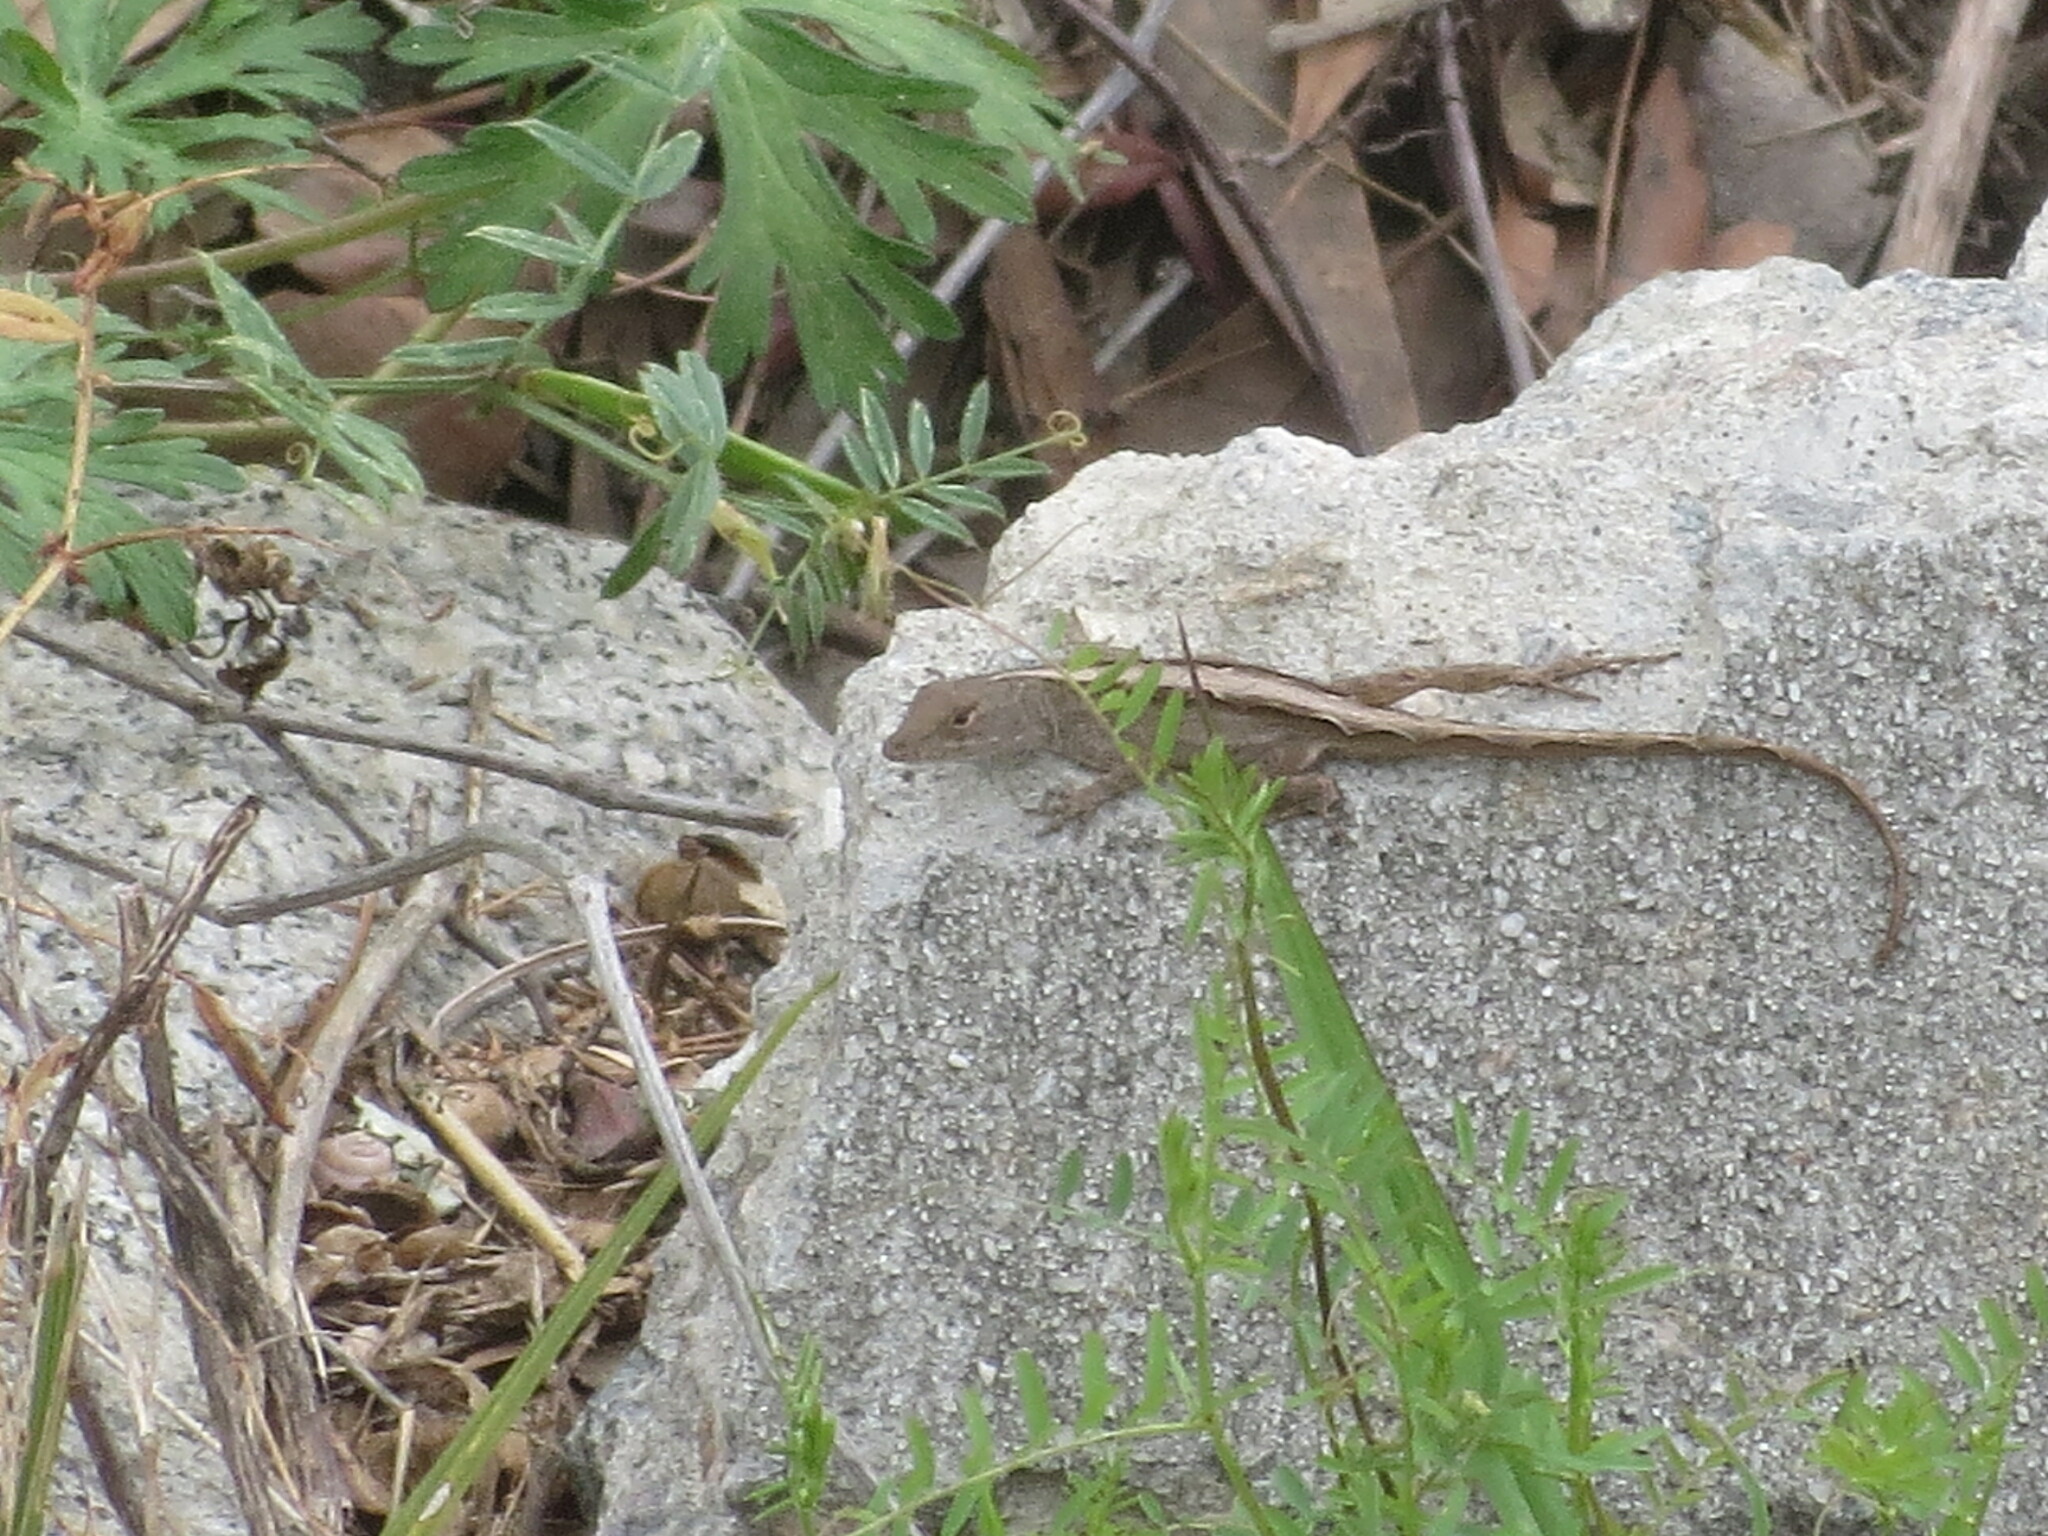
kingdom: Animalia
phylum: Chordata
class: Squamata
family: Dactyloidae
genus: Anolis
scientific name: Anolis sagrei
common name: Brown anole
